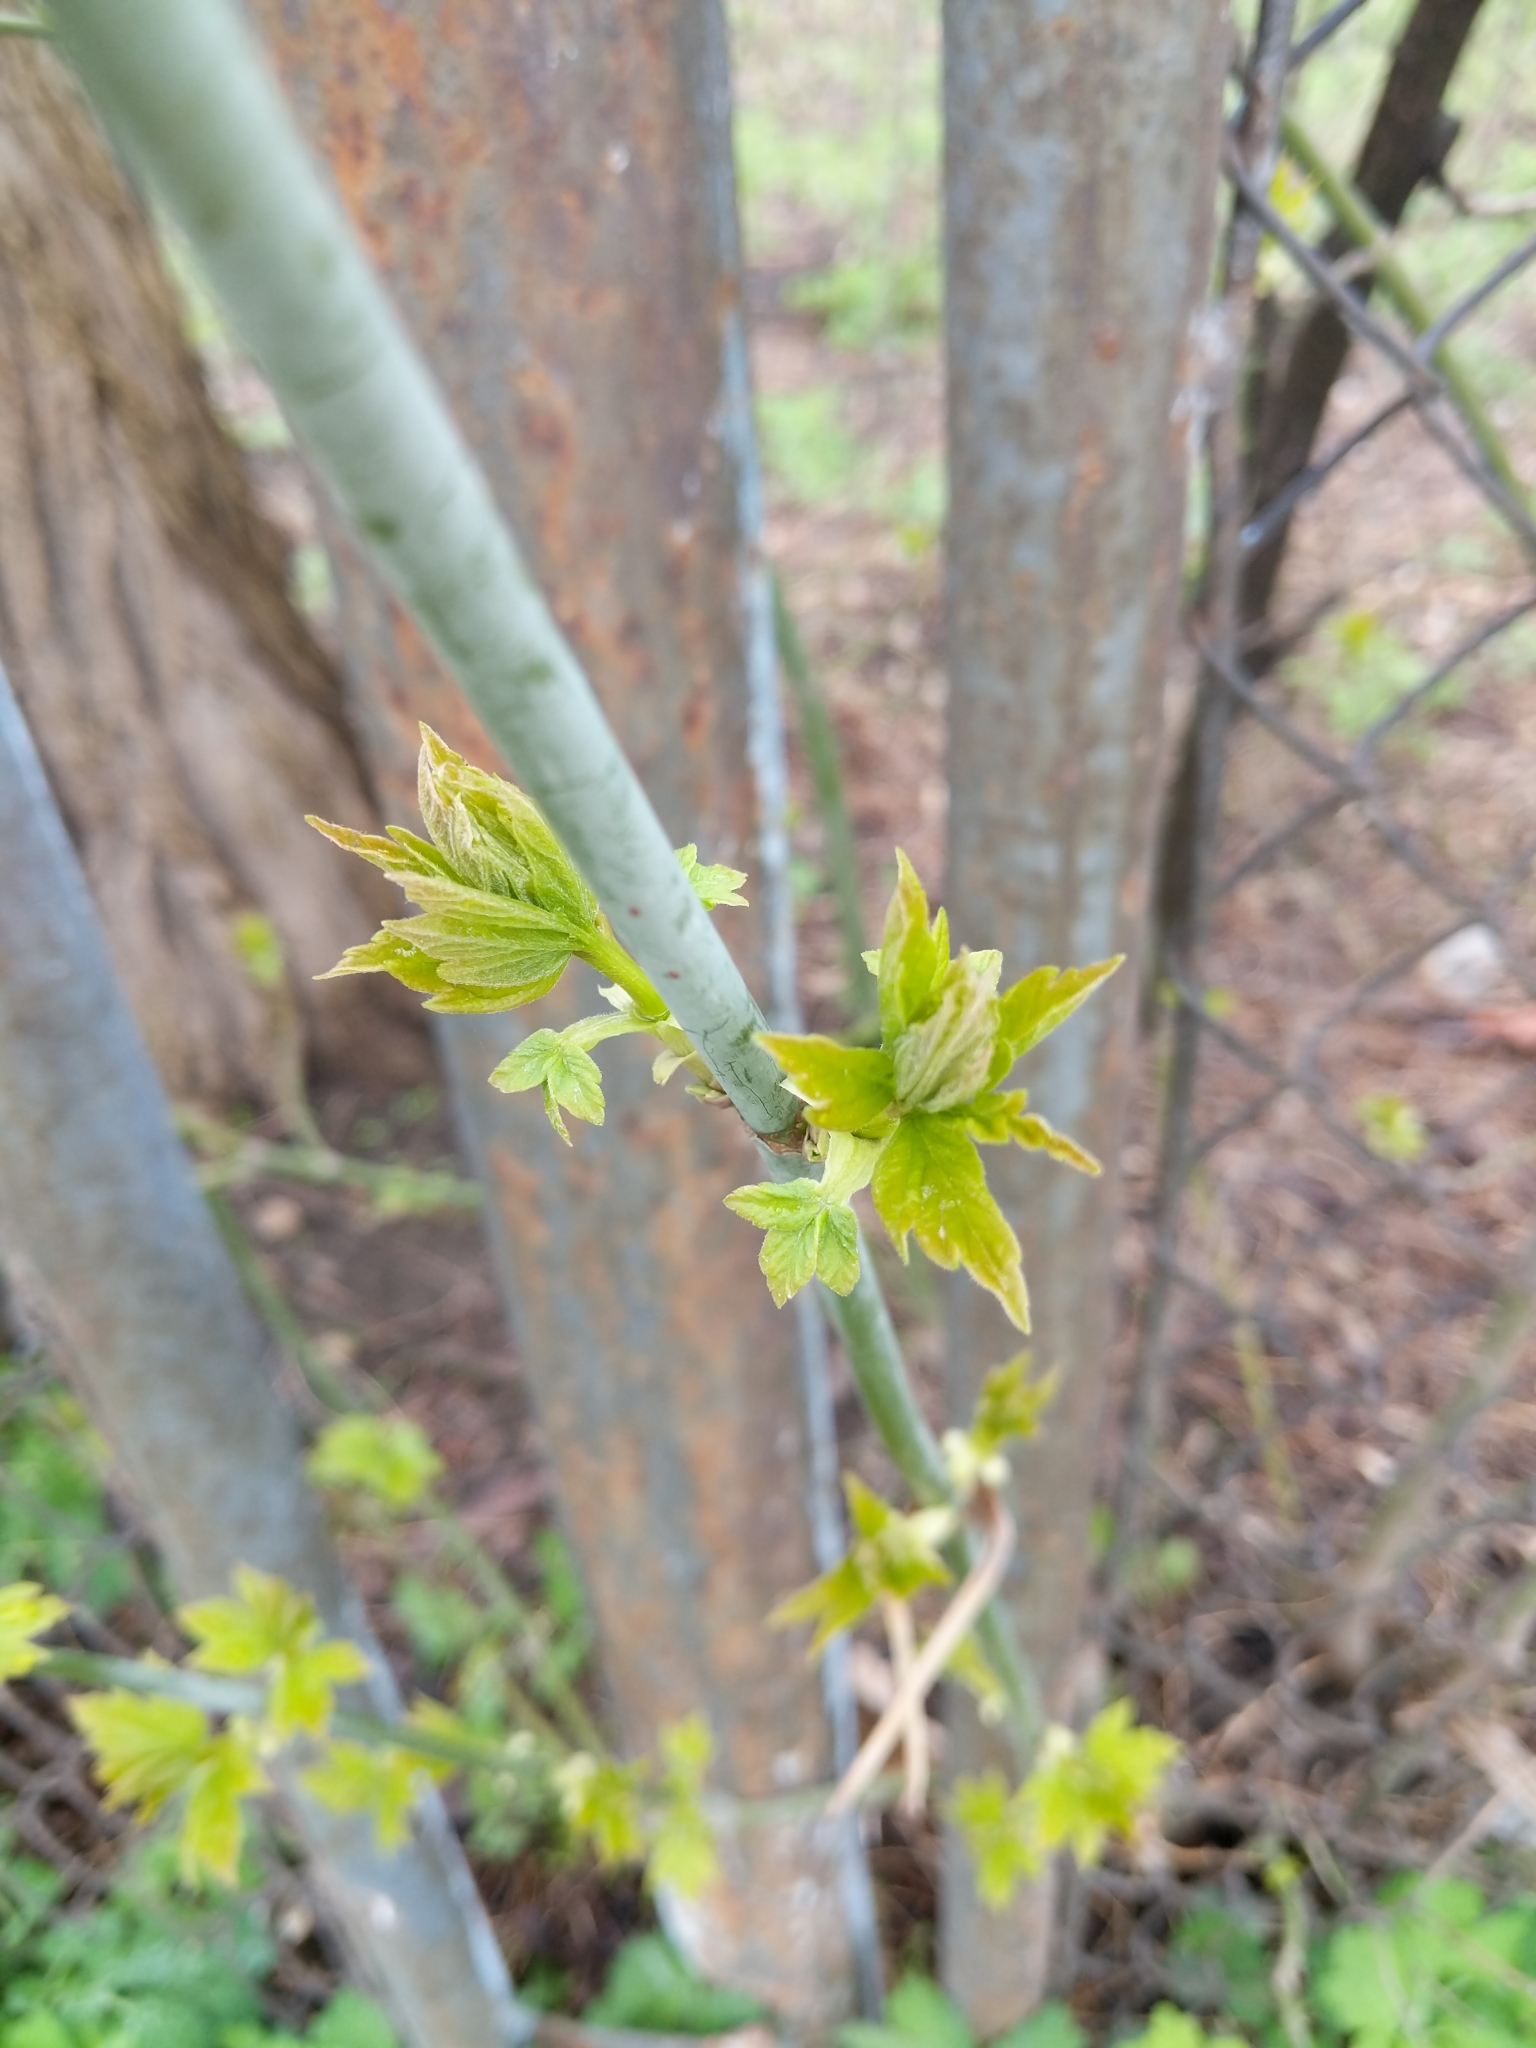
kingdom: Plantae
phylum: Tracheophyta
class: Magnoliopsida
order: Sapindales
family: Sapindaceae
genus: Acer
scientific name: Acer negundo
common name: Ashleaf maple
